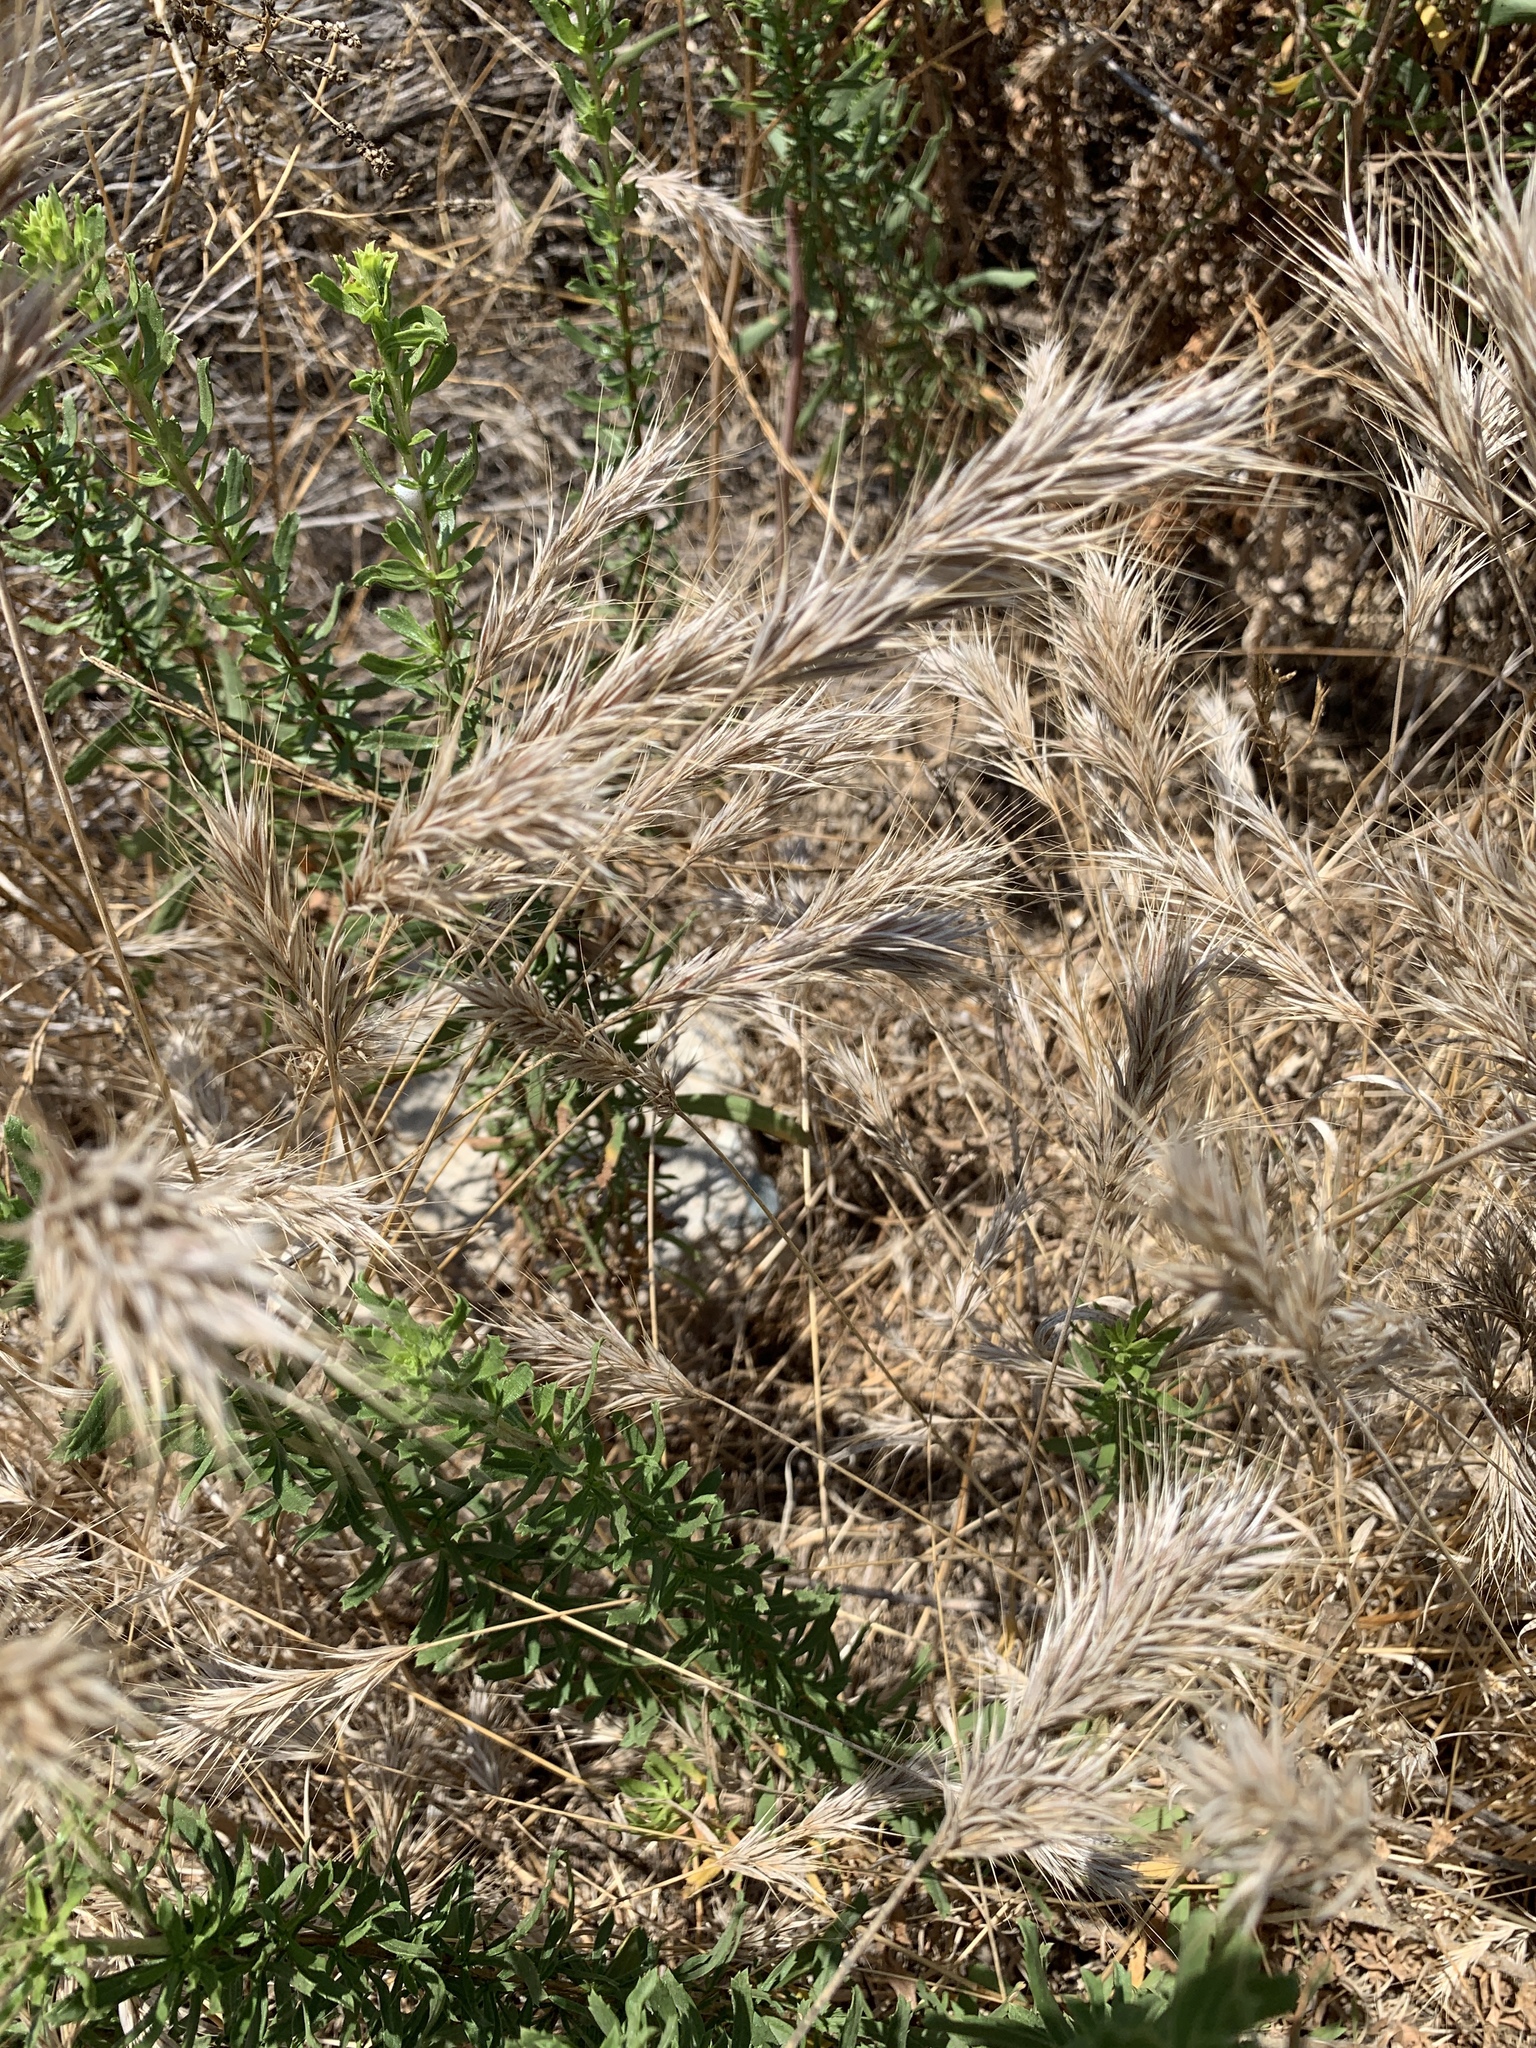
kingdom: Plantae
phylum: Tracheophyta
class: Liliopsida
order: Poales
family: Poaceae
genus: Bromus
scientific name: Bromus rubens
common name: Red brome
